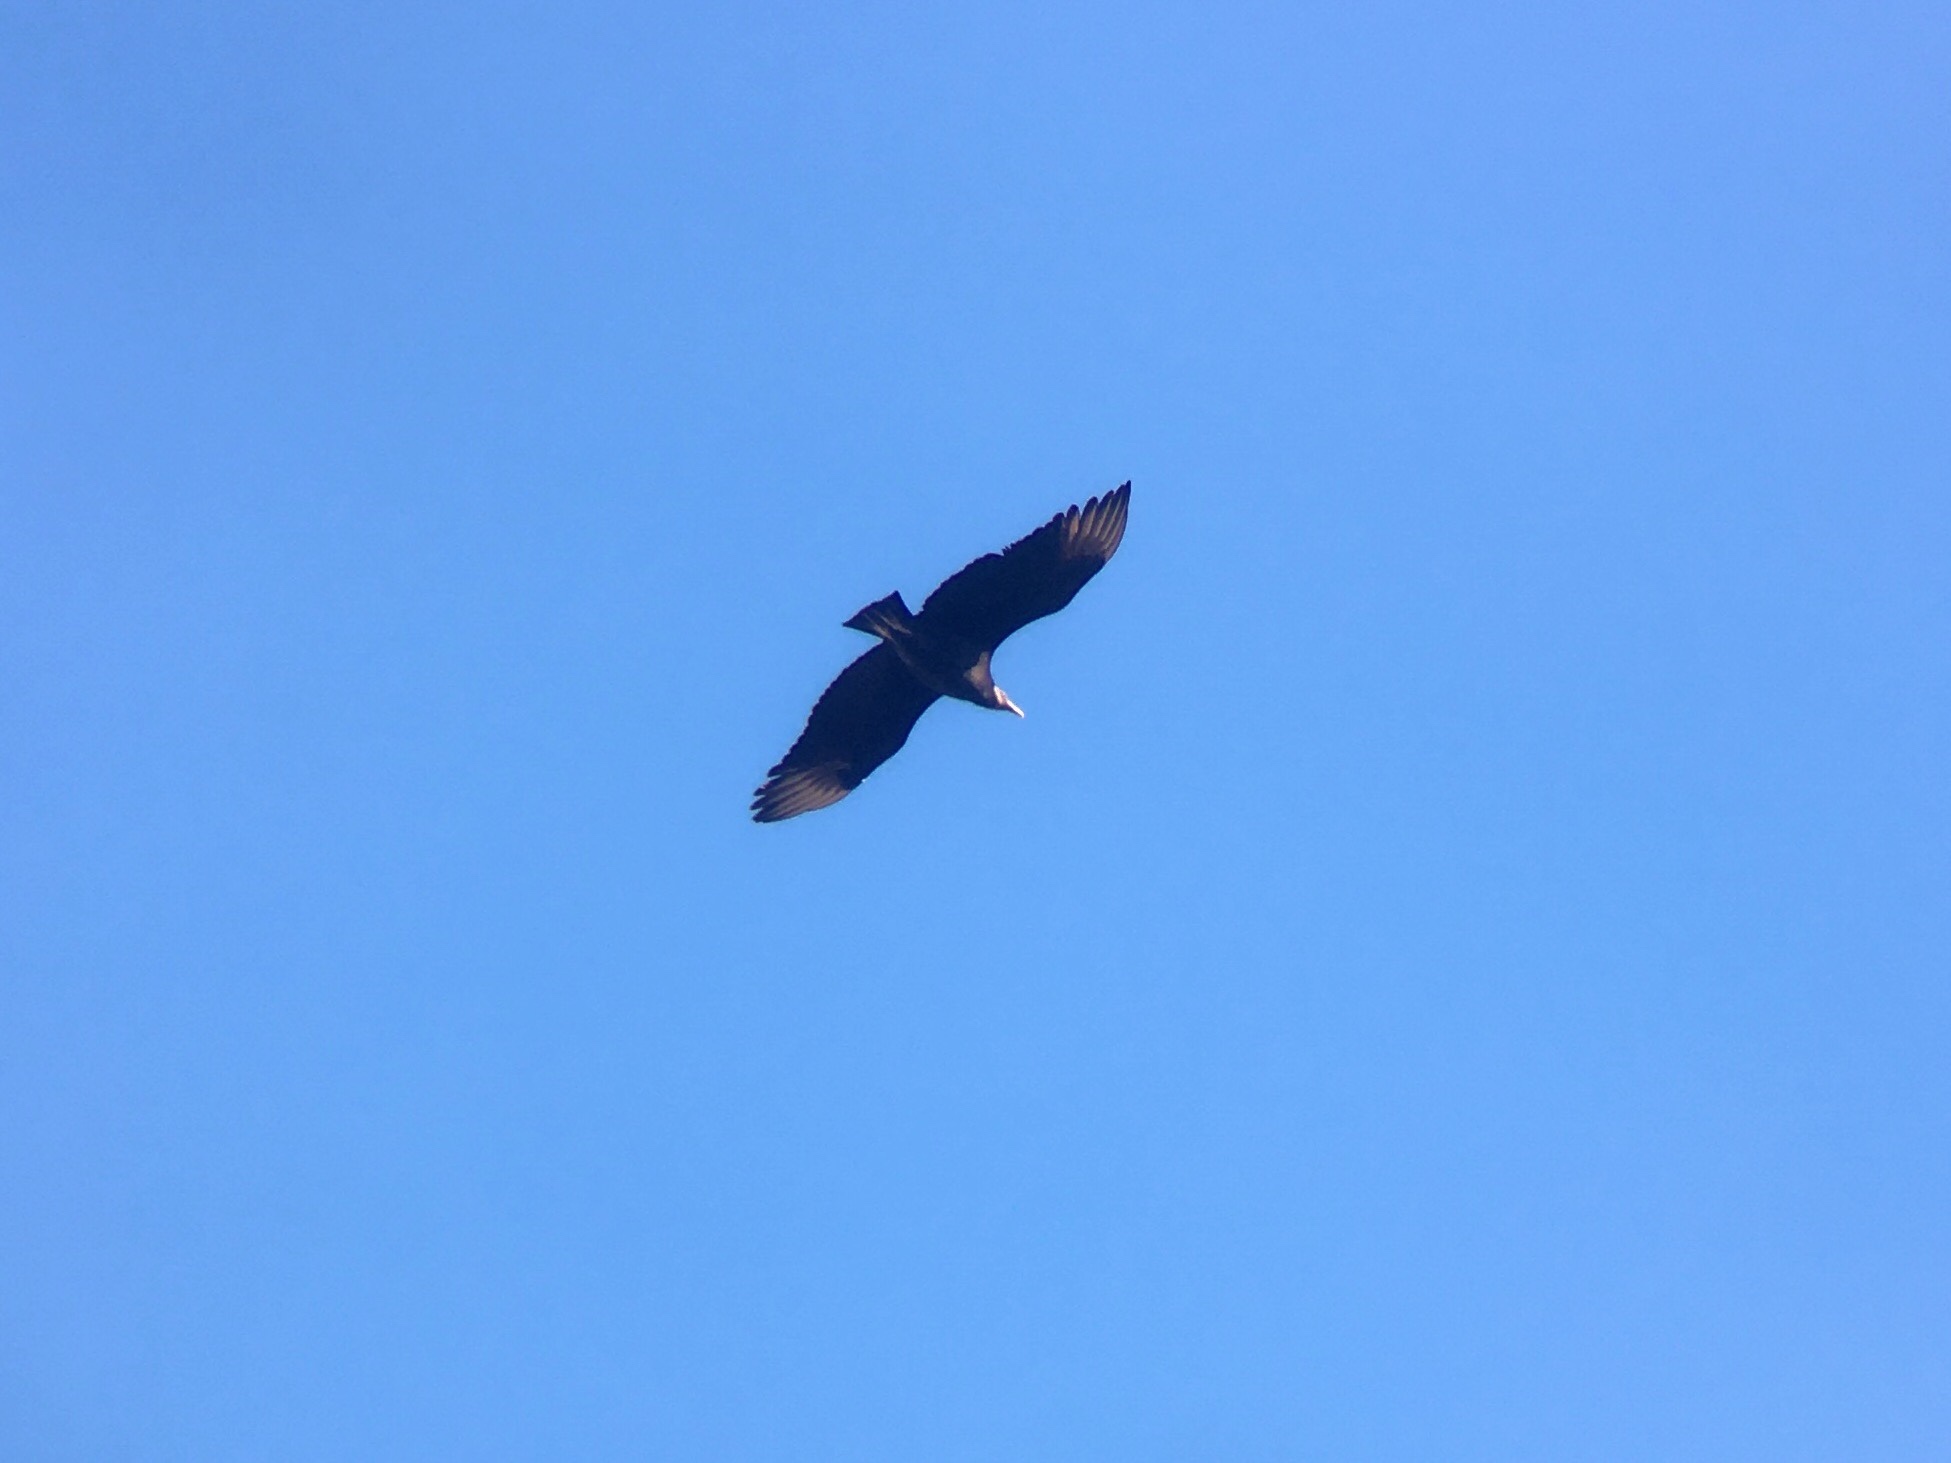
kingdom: Animalia
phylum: Chordata
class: Aves
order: Accipitriformes
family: Cathartidae
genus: Coragyps
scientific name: Coragyps atratus
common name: Black vulture
